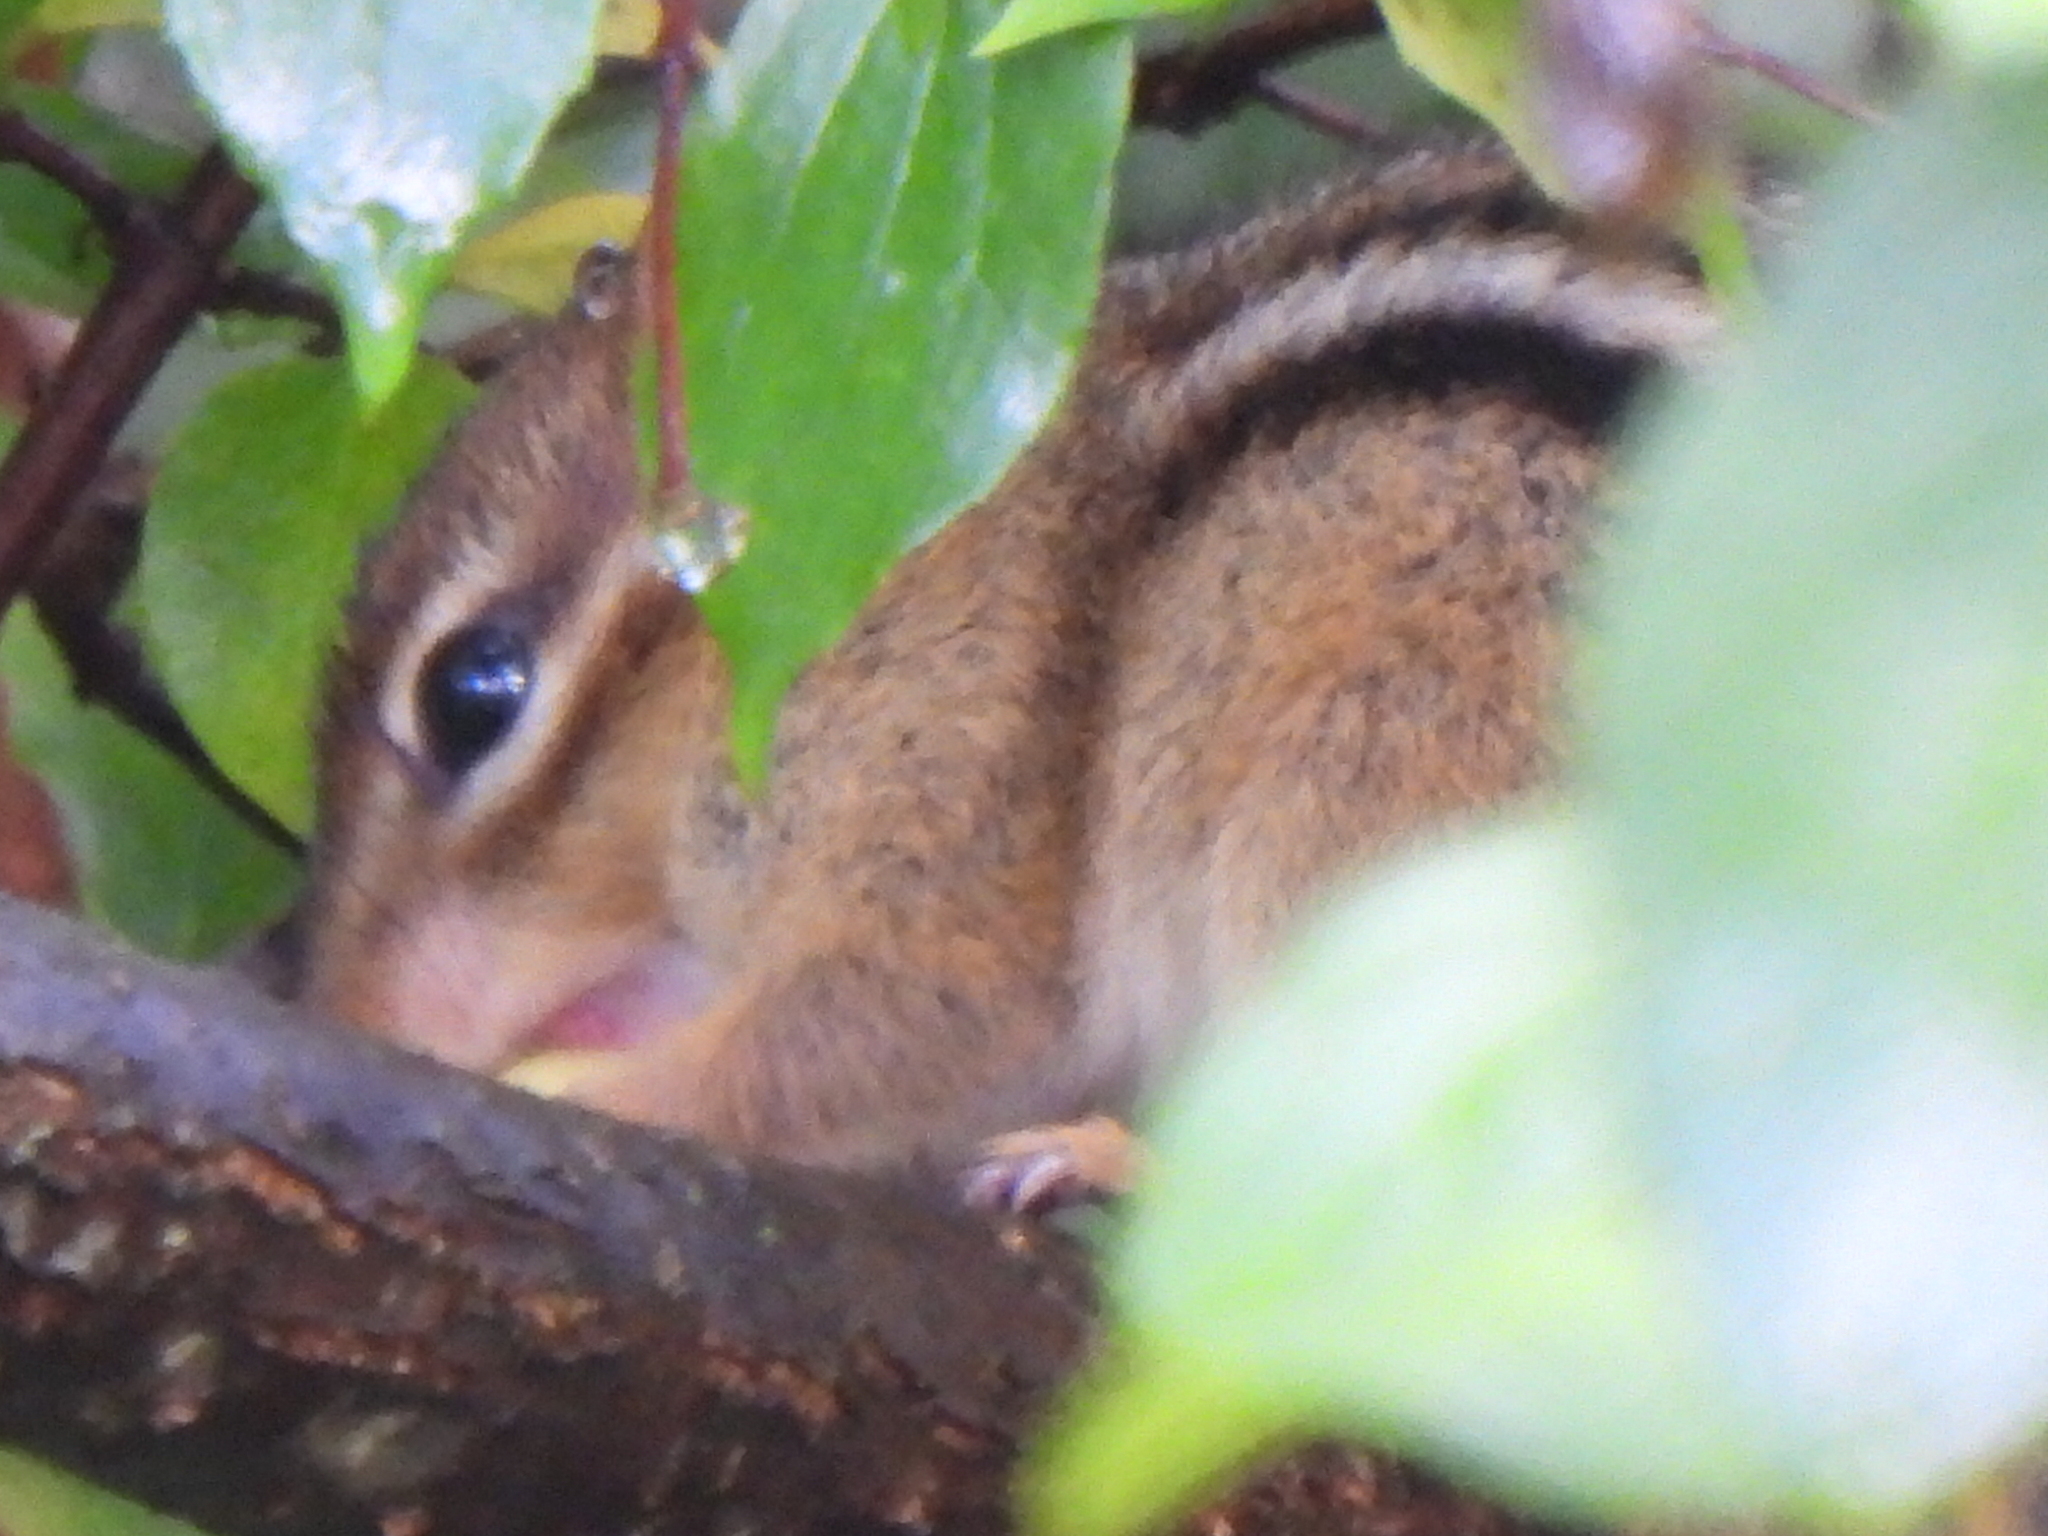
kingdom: Animalia
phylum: Chordata
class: Mammalia
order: Rodentia
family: Sciuridae
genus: Tamias
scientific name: Tamias striatus
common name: Eastern chipmunk
